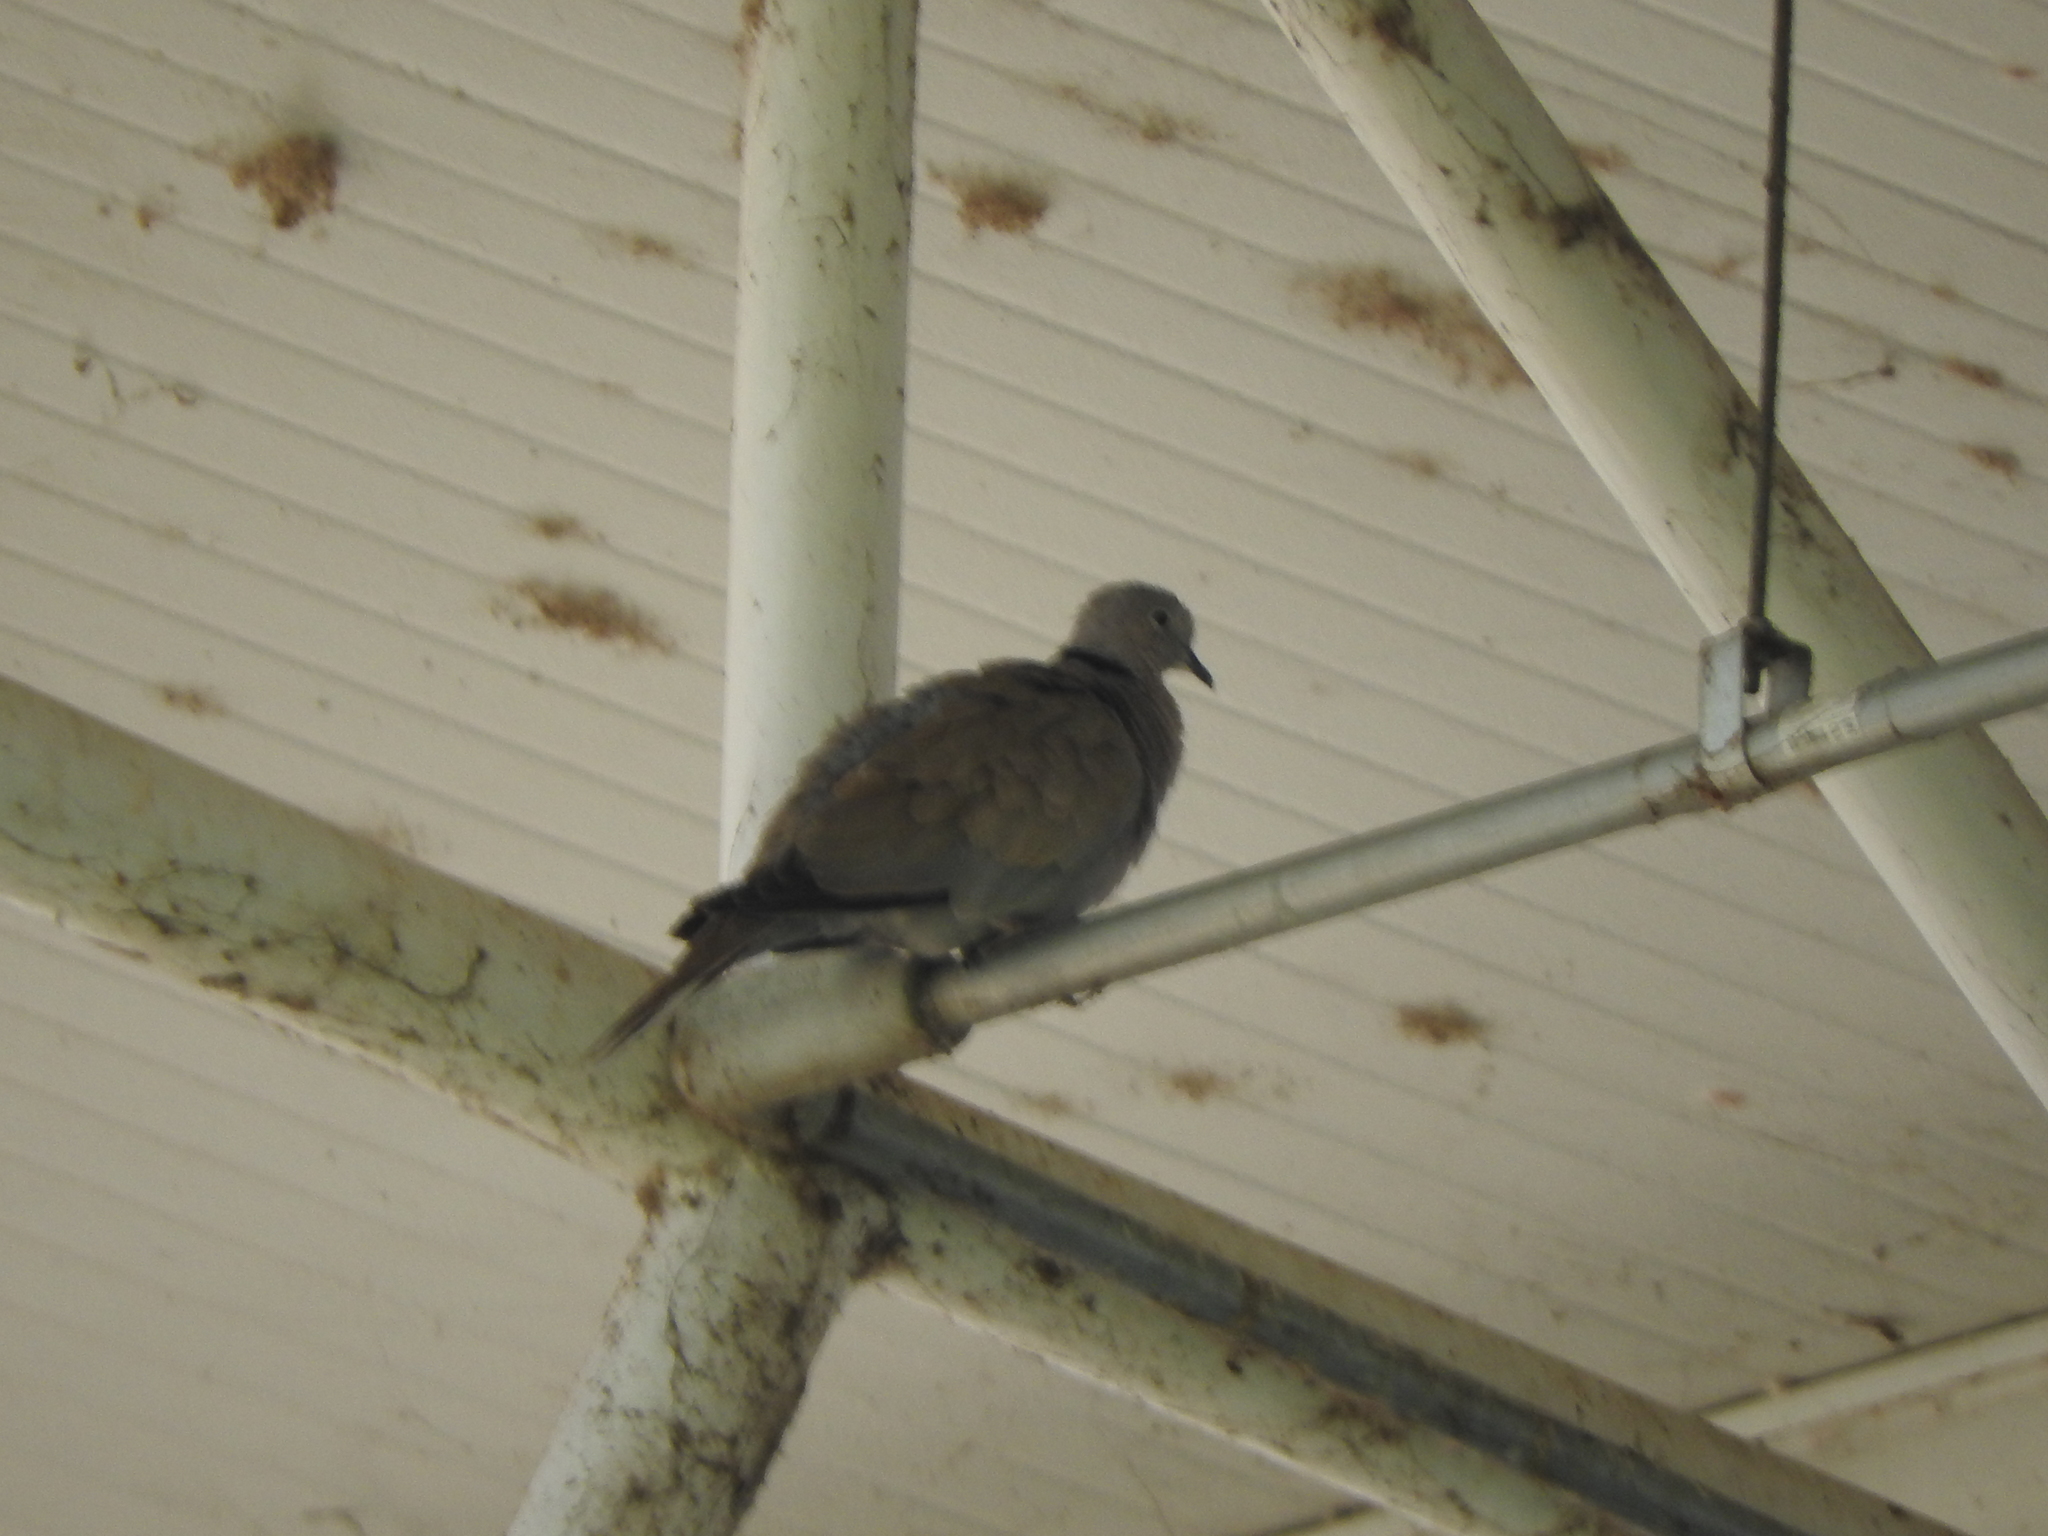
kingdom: Animalia
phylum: Chordata
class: Aves
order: Columbiformes
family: Columbidae
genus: Streptopelia
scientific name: Streptopelia decaocto
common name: Eurasian collared dove
